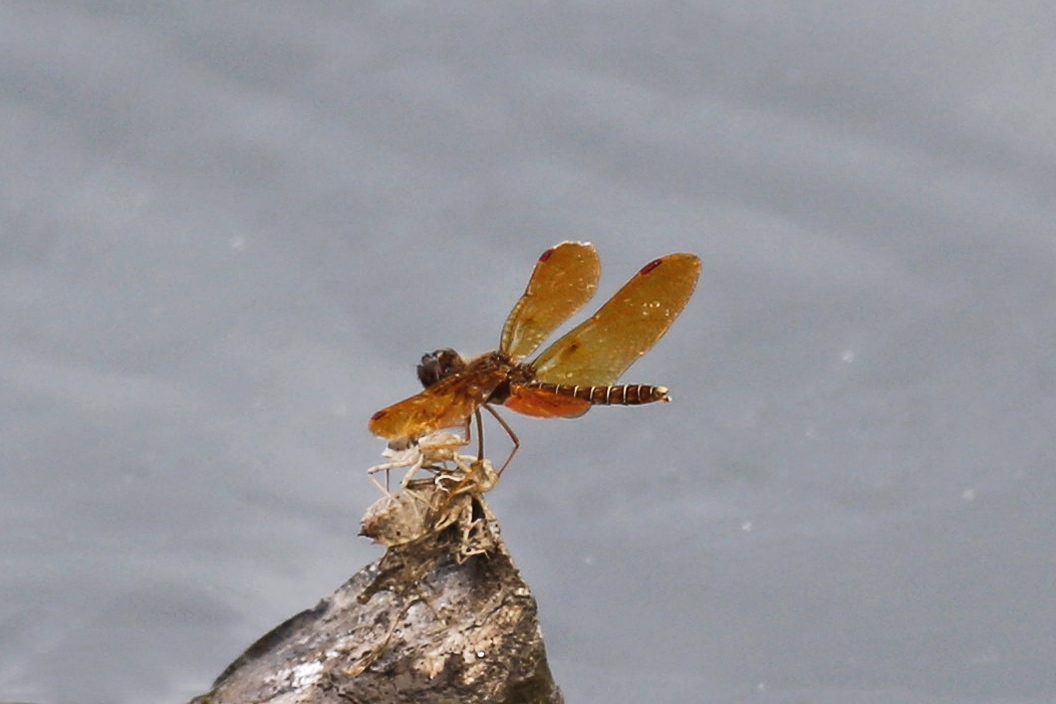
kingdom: Animalia
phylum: Arthropoda
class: Insecta
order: Odonata
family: Libellulidae
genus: Perithemis
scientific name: Perithemis tenera
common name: Eastern amberwing
